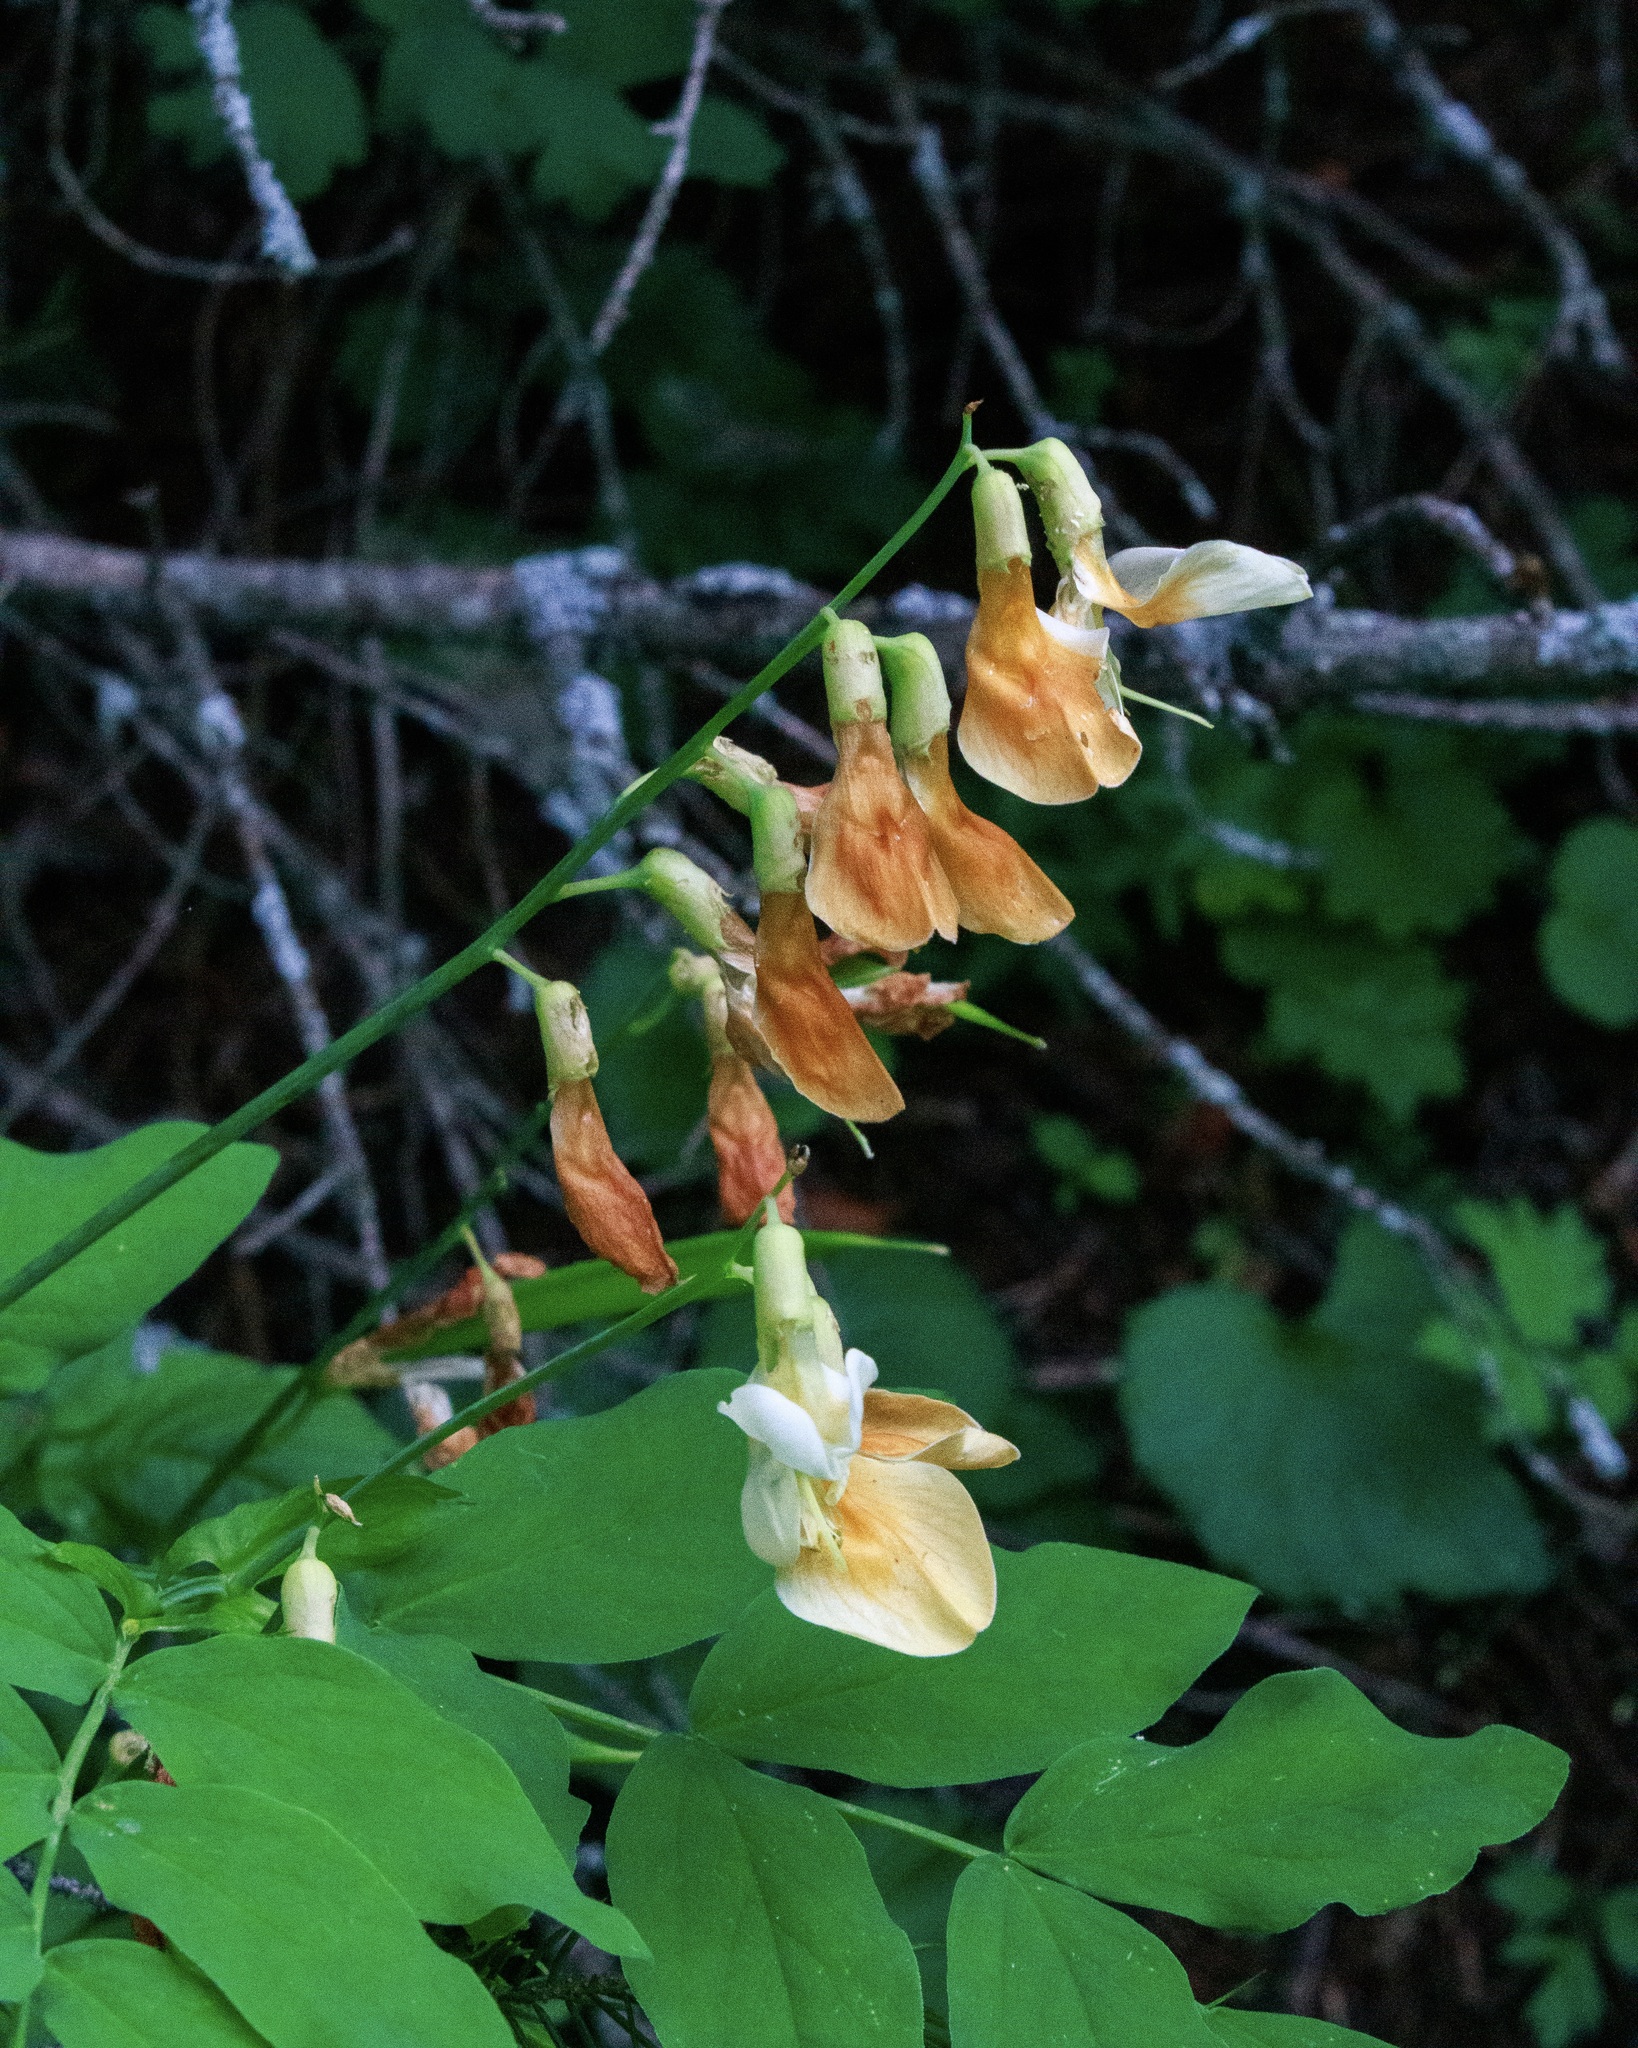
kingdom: Plantae
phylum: Tracheophyta
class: Magnoliopsida
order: Fabales
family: Fabaceae
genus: Lathyrus
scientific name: Lathyrus gmelinii
